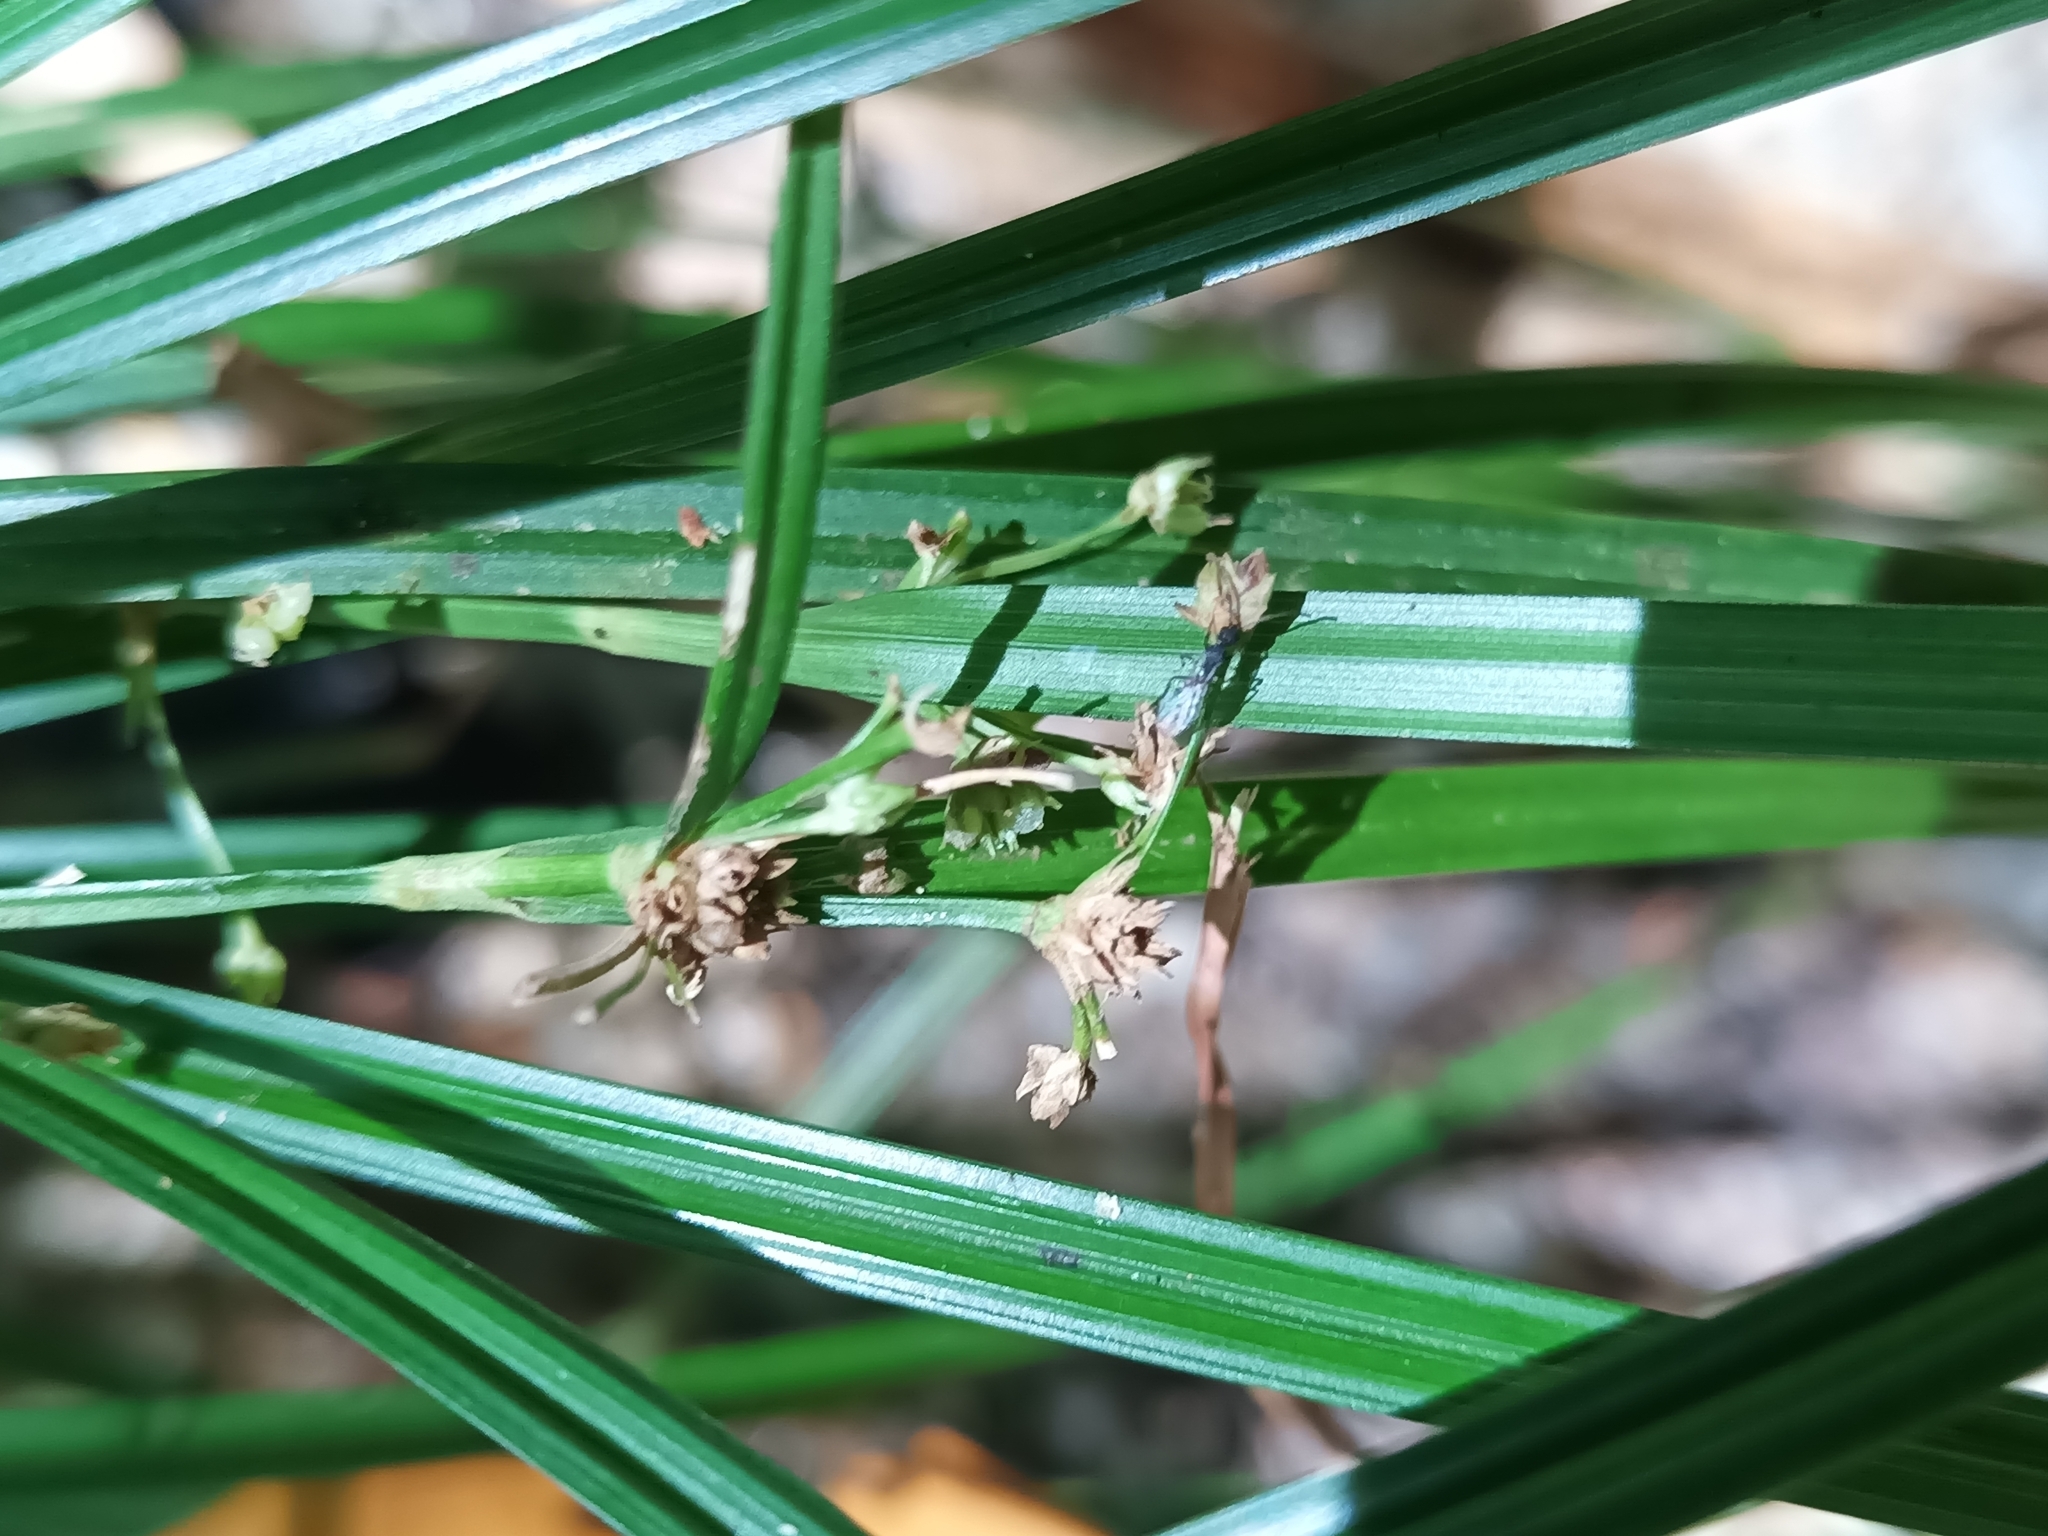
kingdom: Plantae
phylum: Tracheophyta
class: Liliopsida
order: Poales
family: Cyperaceae
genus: Becquerelia
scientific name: Becquerelia cymosa
